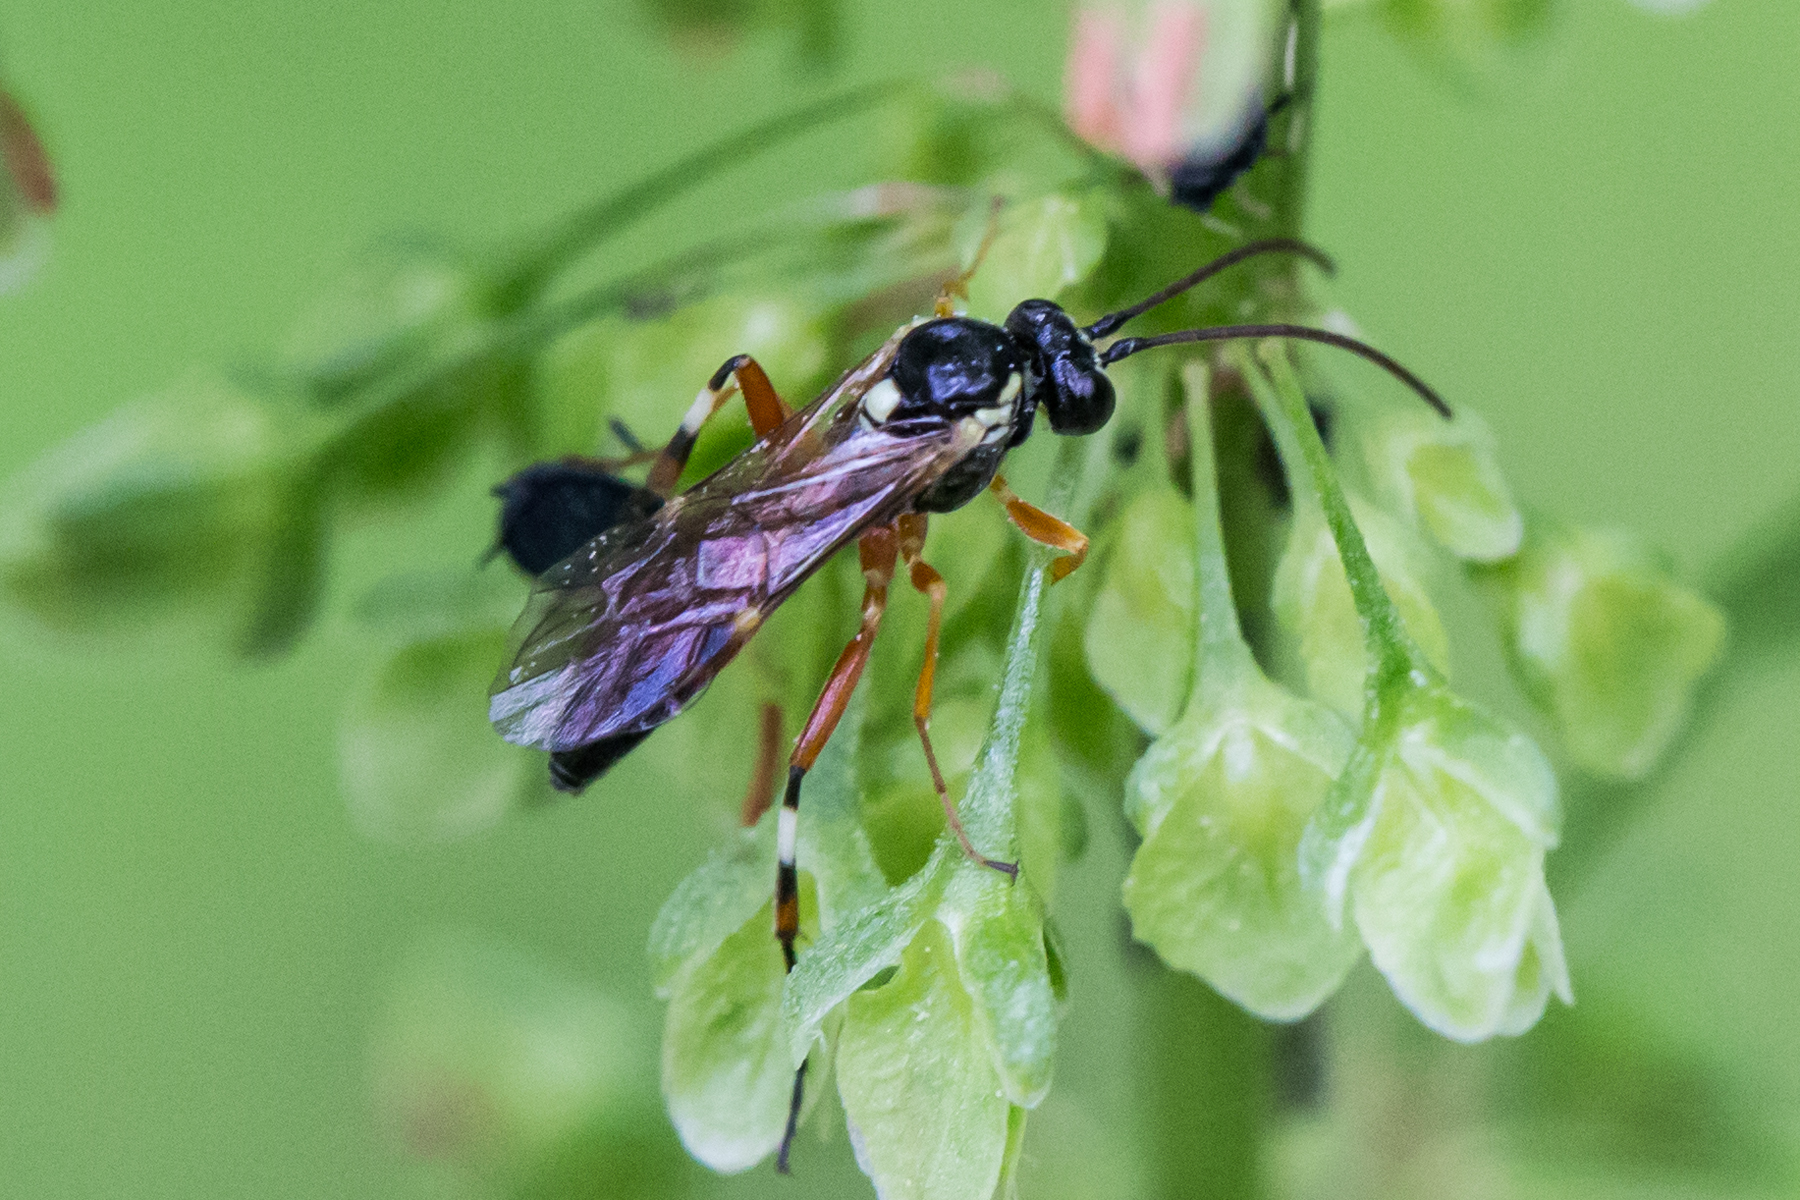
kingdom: Animalia
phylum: Arthropoda
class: Insecta
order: Hymenoptera
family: Ichneumonidae
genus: Diplazon
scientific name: Diplazon laetatorius
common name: Parasitoid wasp
